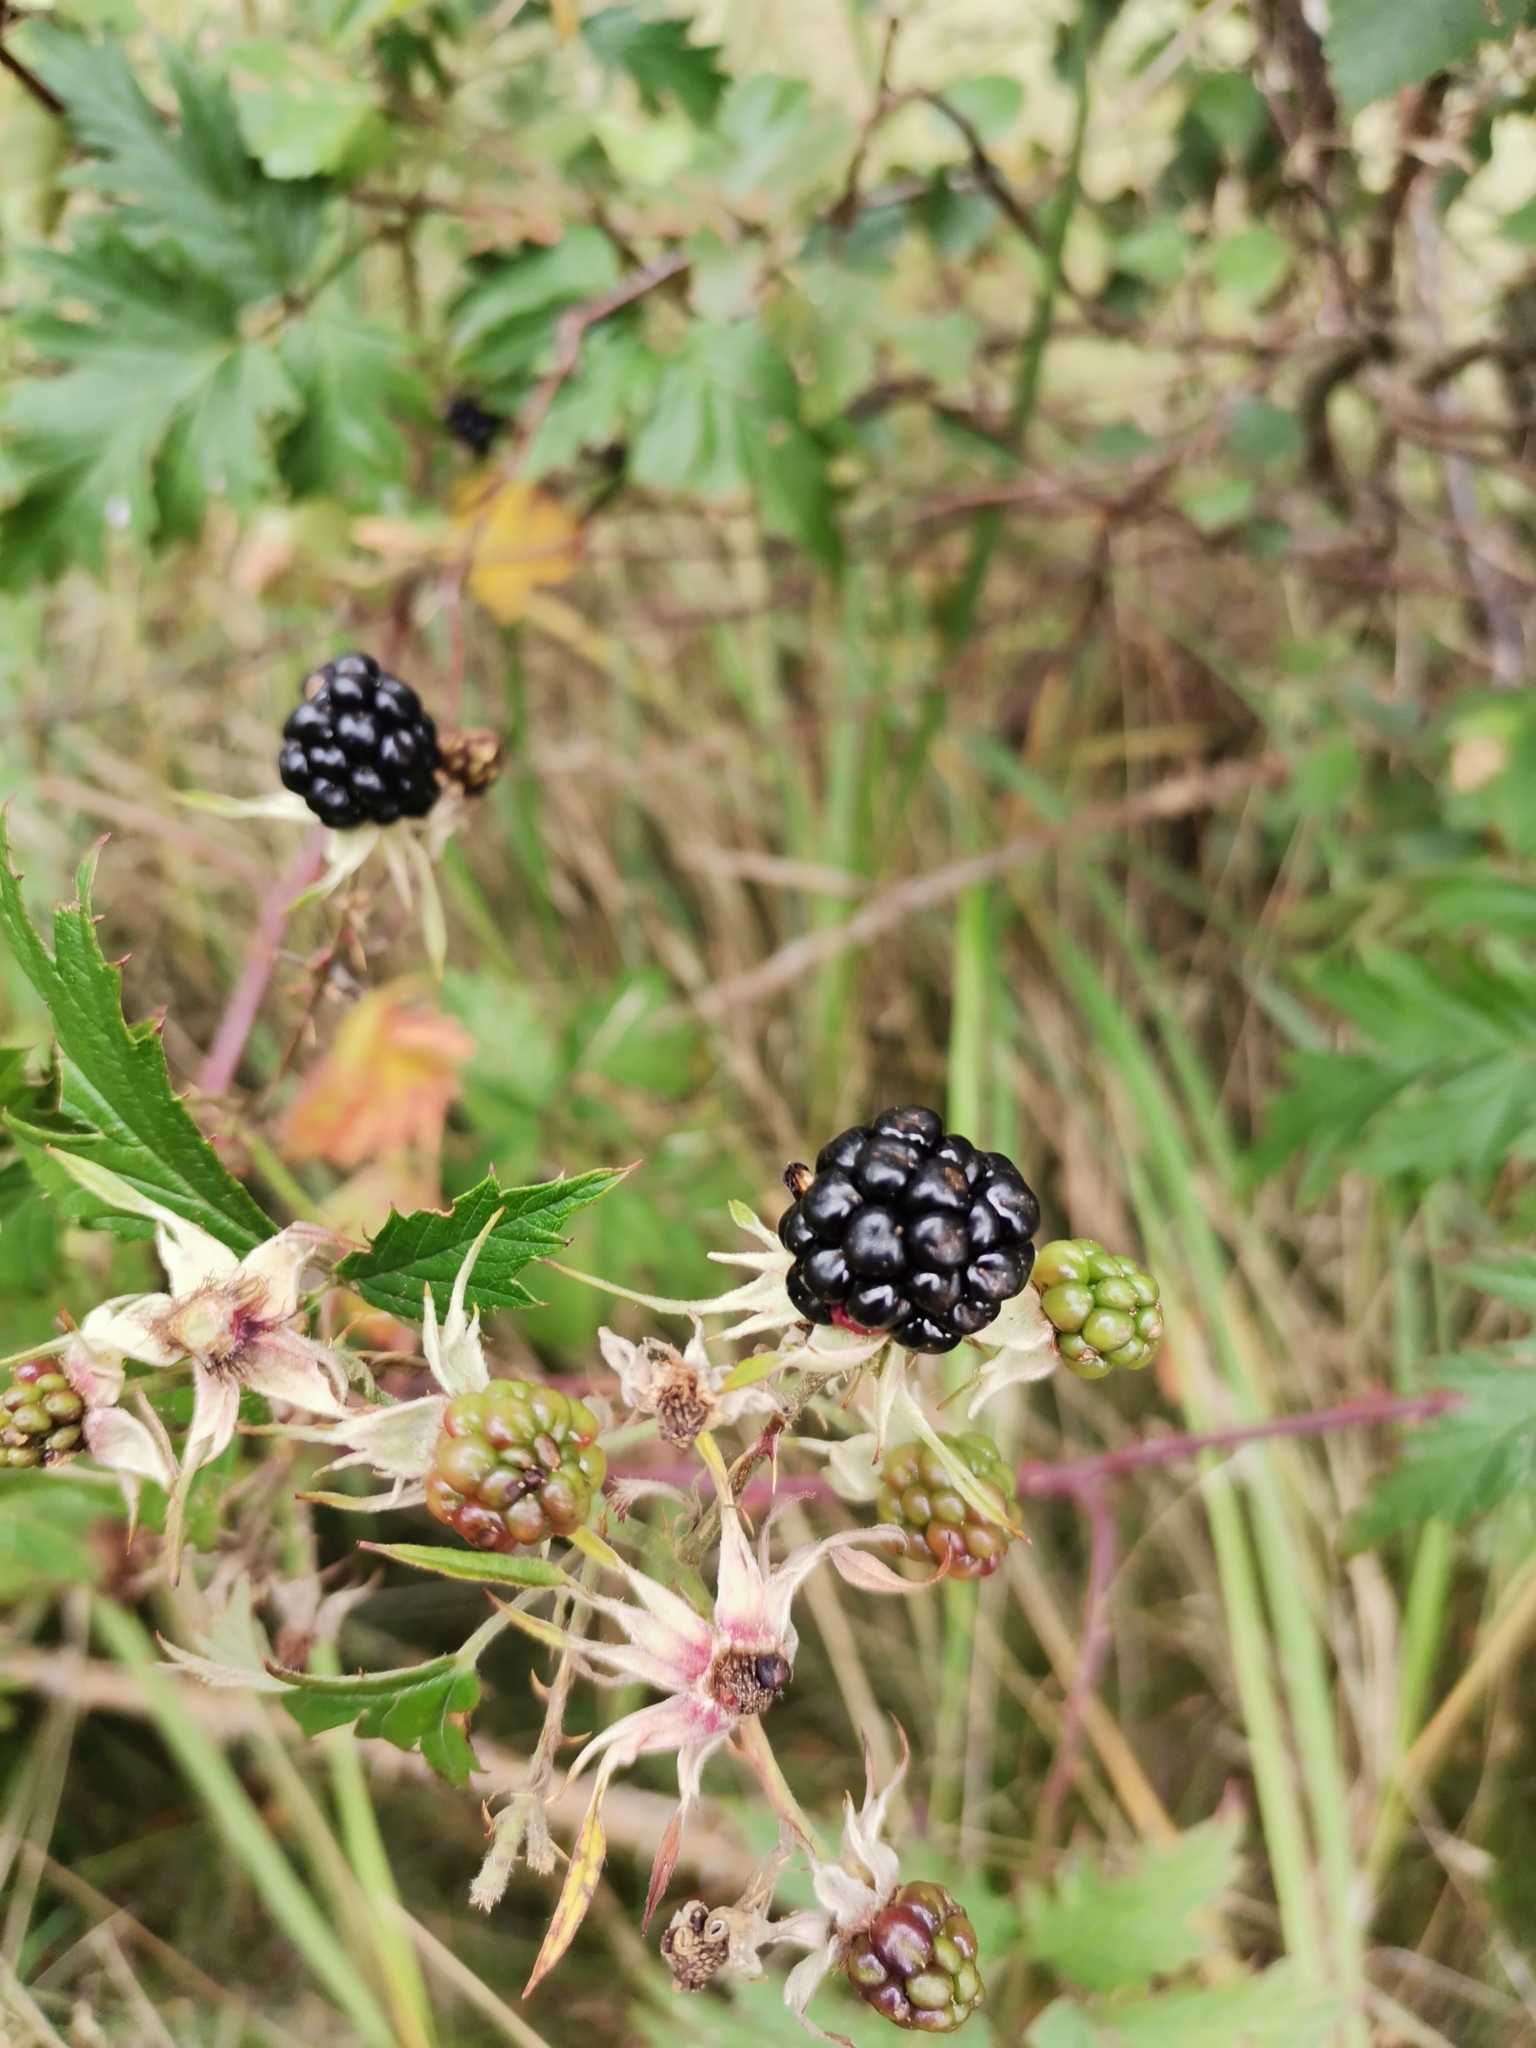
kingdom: Plantae
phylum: Tracheophyta
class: Magnoliopsida
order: Rosales
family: Rosaceae
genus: Rubus
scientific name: Rubus laciniatus
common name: Evergreen blackberry
